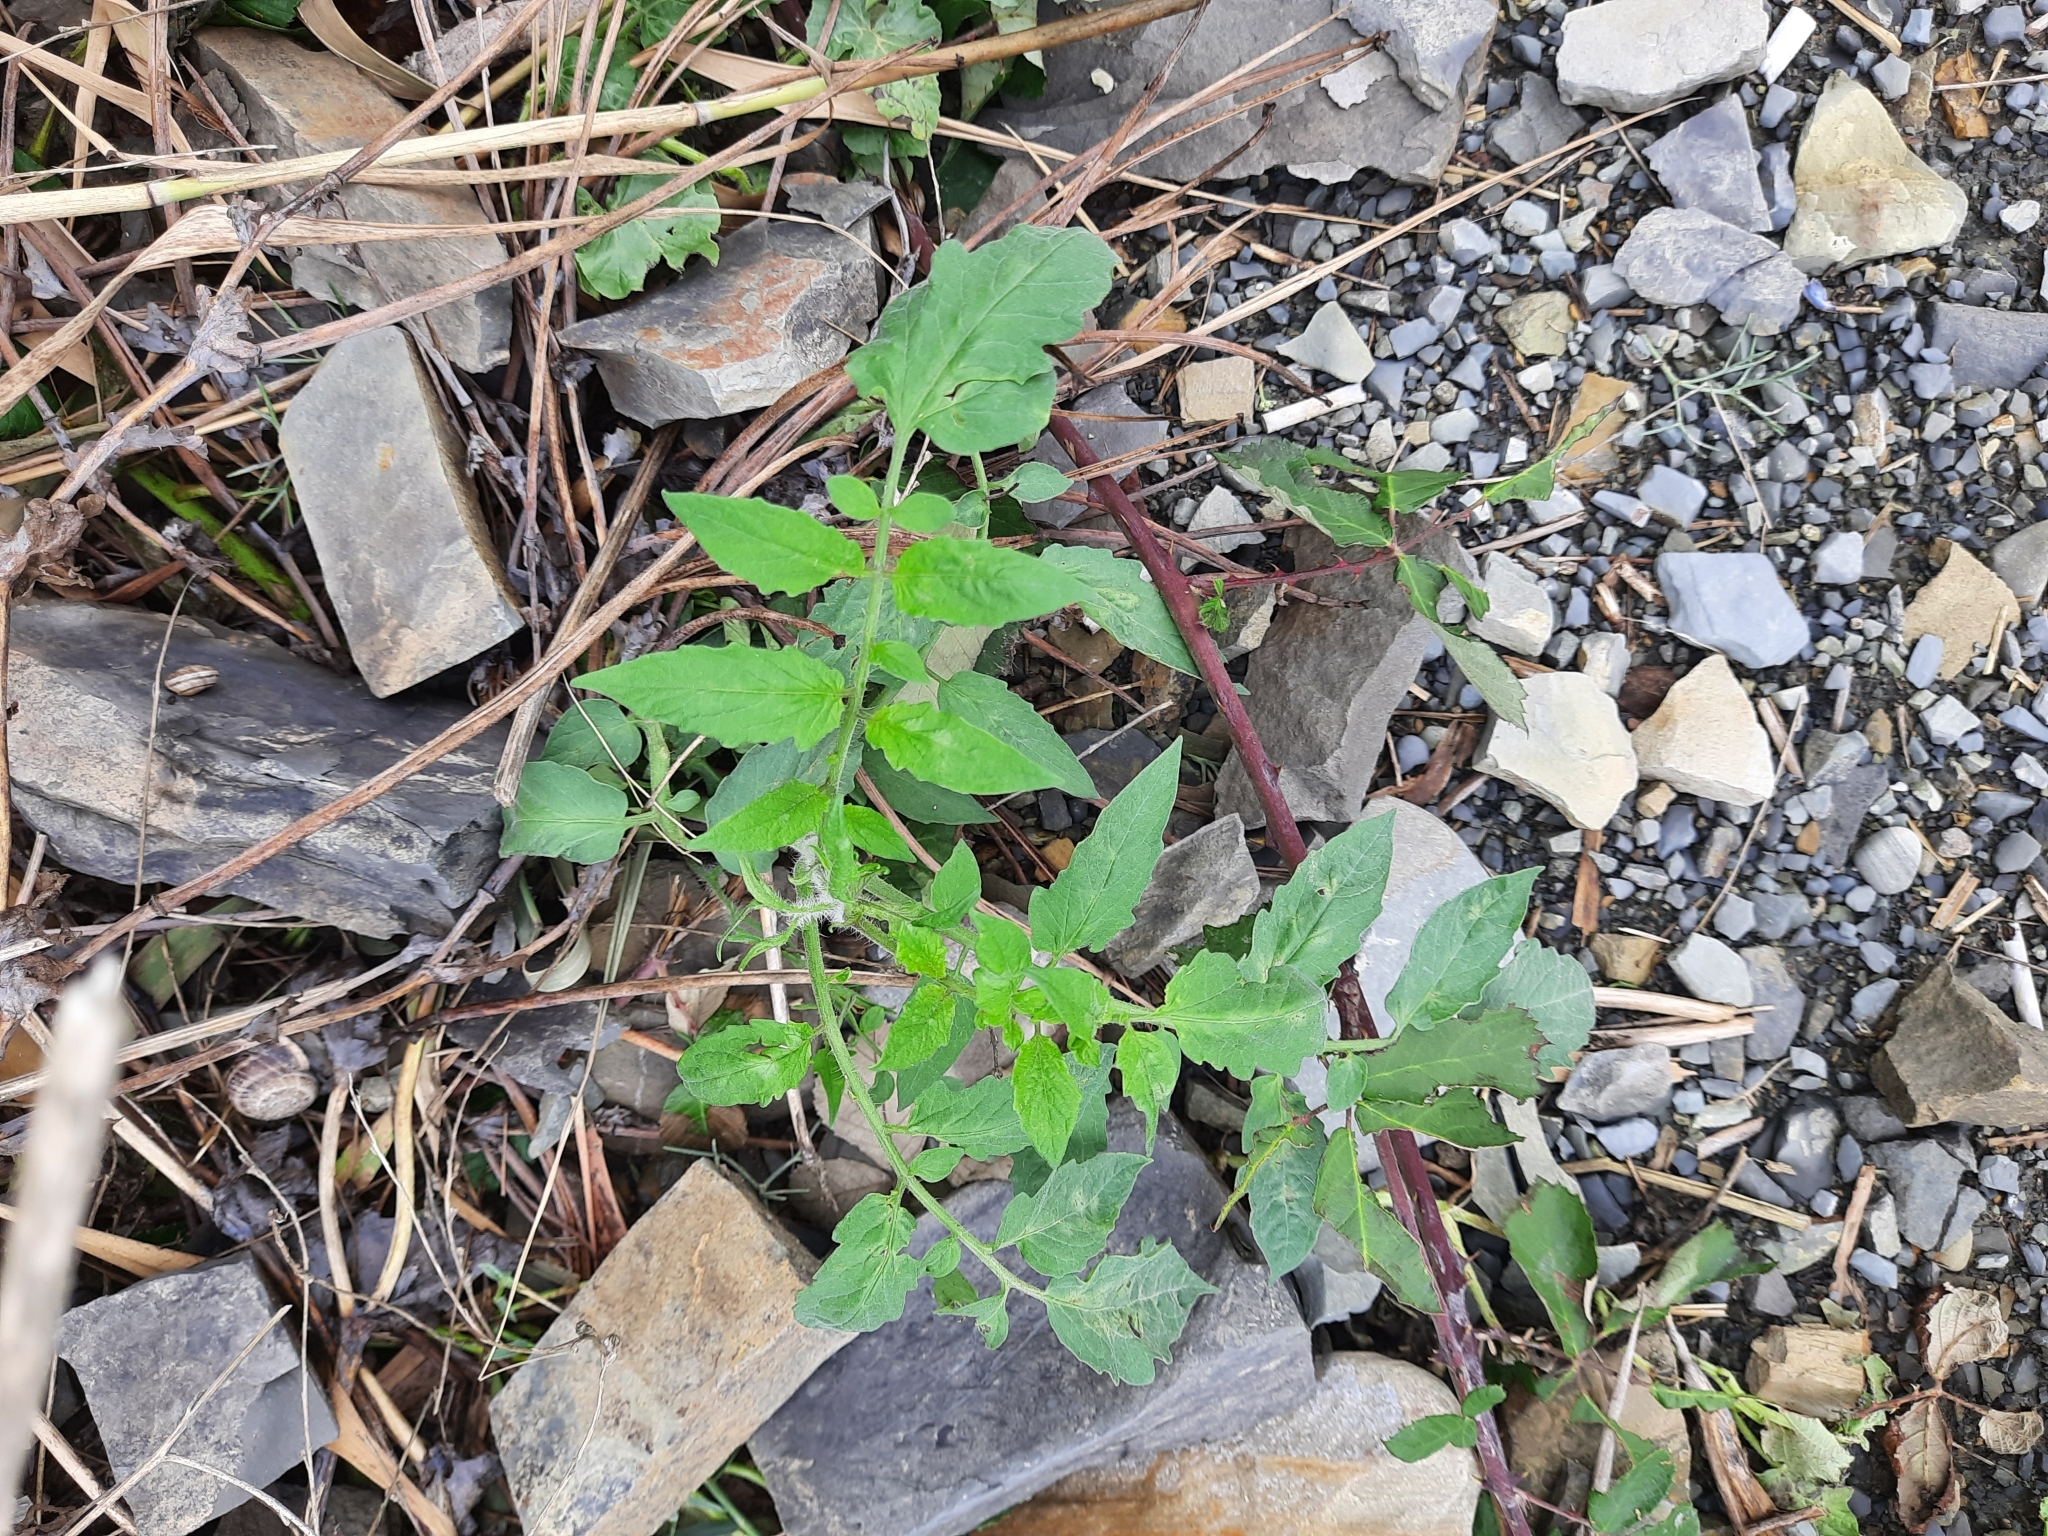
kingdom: Plantae
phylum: Tracheophyta
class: Magnoliopsida
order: Solanales
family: Solanaceae
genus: Solanum
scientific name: Solanum lycopersicum
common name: Garden tomato
